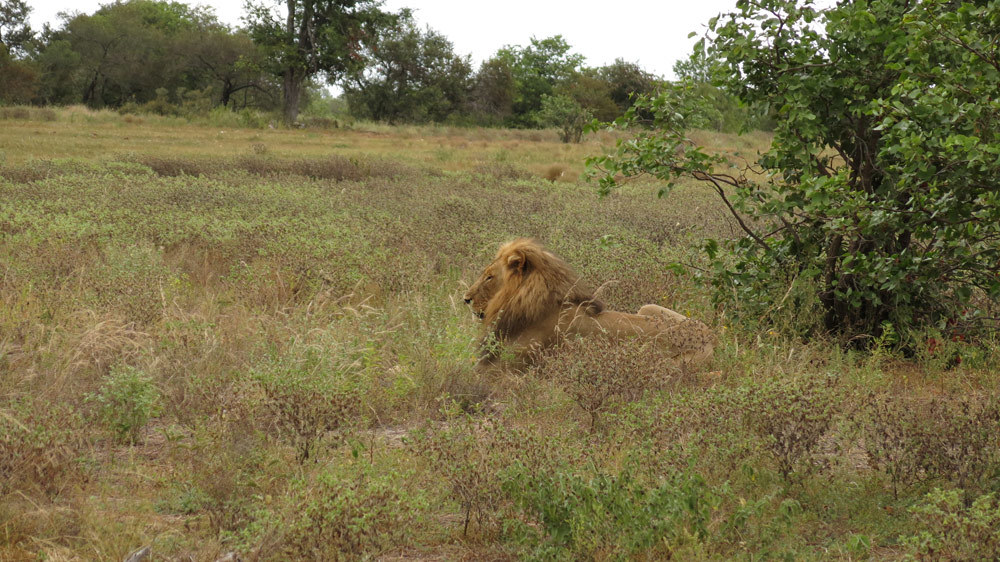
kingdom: Animalia
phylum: Chordata
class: Mammalia
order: Carnivora
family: Felidae
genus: Panthera
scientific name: Panthera leo
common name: Lion
